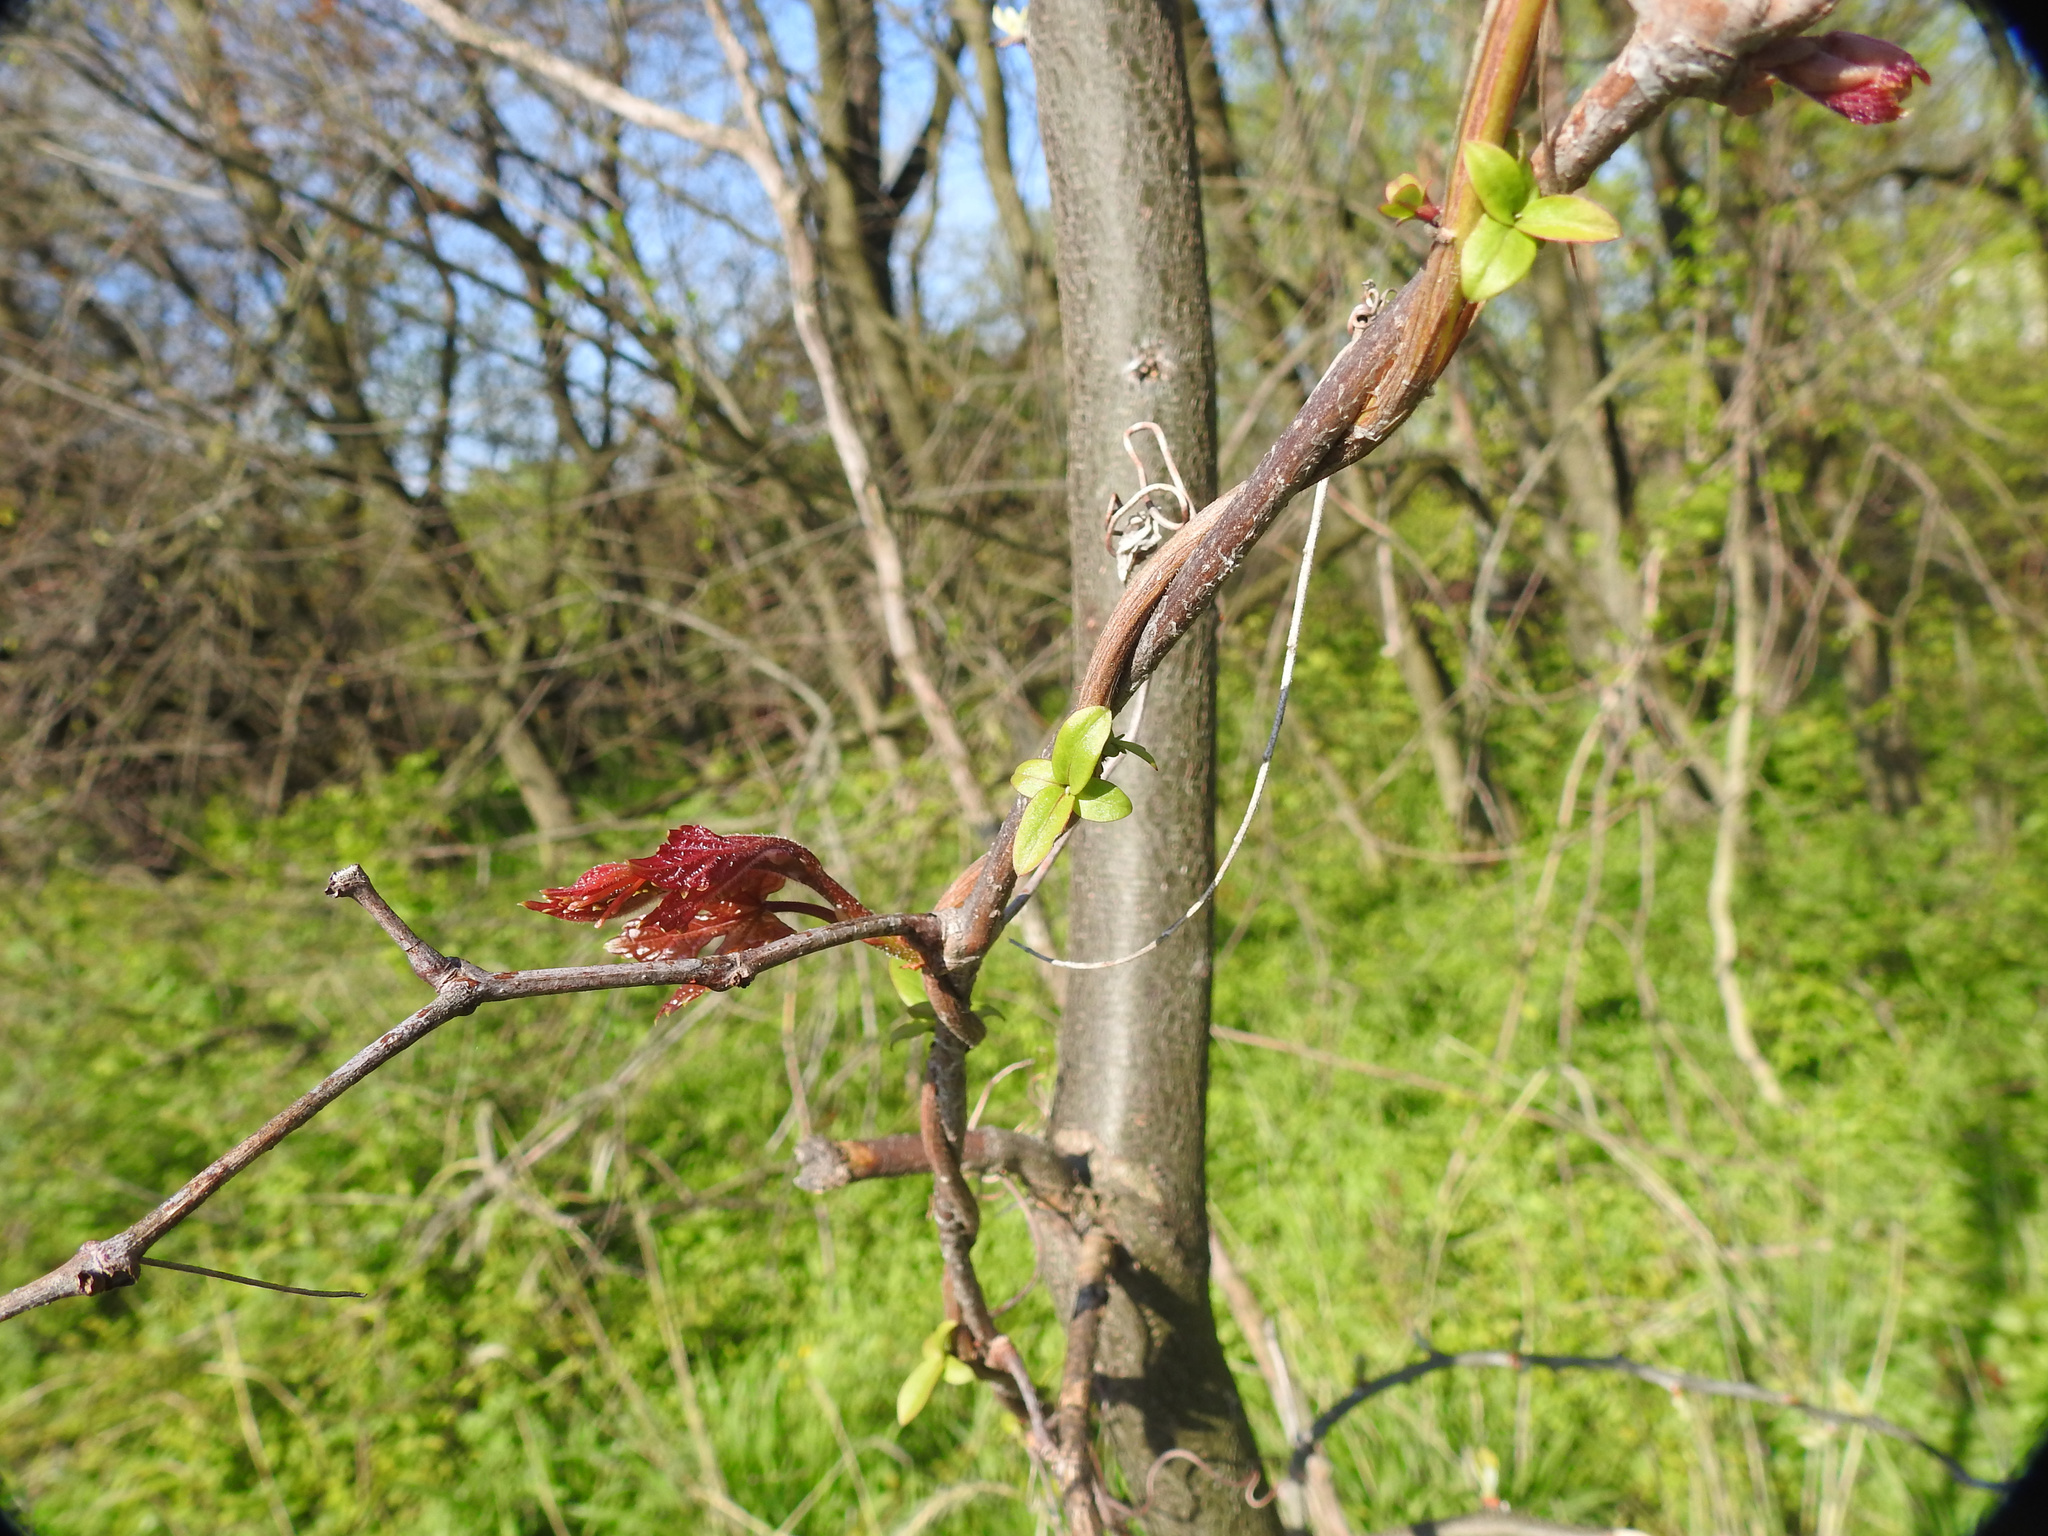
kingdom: Plantae
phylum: Tracheophyta
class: Magnoliopsida
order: Dipsacales
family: Caprifoliaceae
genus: Lonicera
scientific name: Lonicera japonica
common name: Japanese honeysuckle
